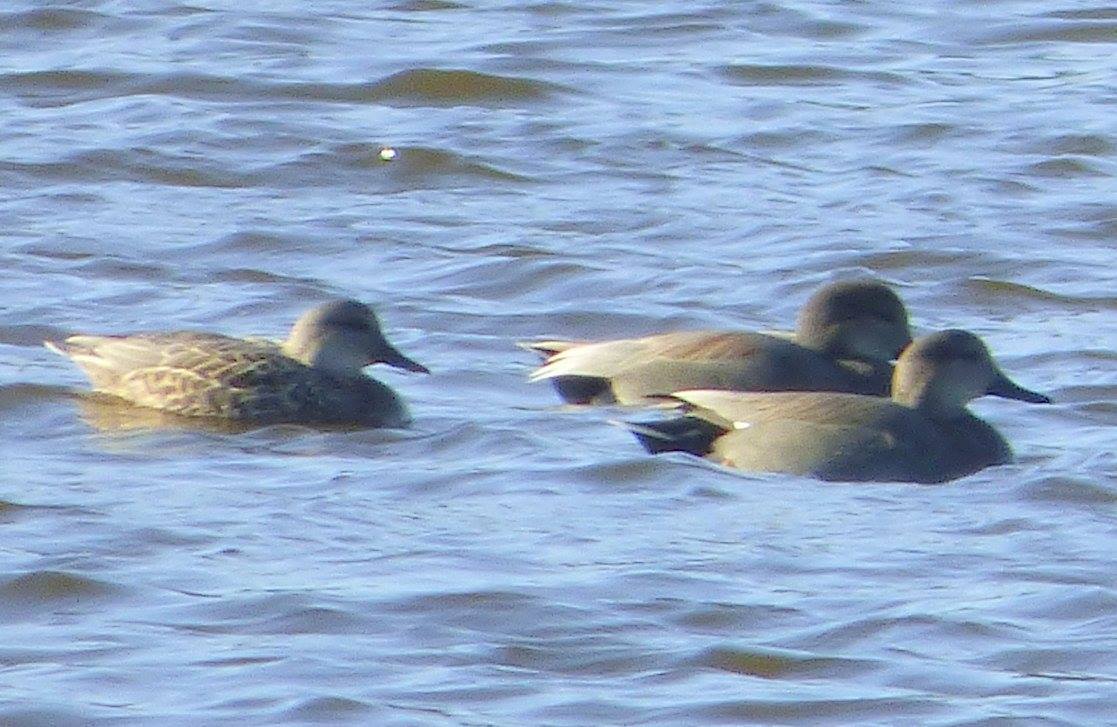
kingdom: Animalia
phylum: Chordata
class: Aves
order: Anseriformes
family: Anatidae
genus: Mareca
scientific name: Mareca strepera
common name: Gadwall
